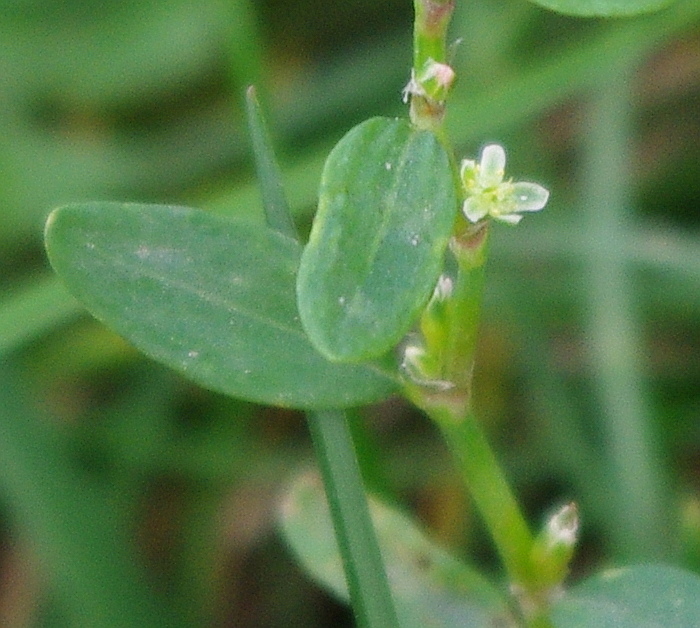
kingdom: Plantae
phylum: Tracheophyta
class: Magnoliopsida
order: Caryophyllales
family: Polygonaceae
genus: Polygonum
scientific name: Polygonum
